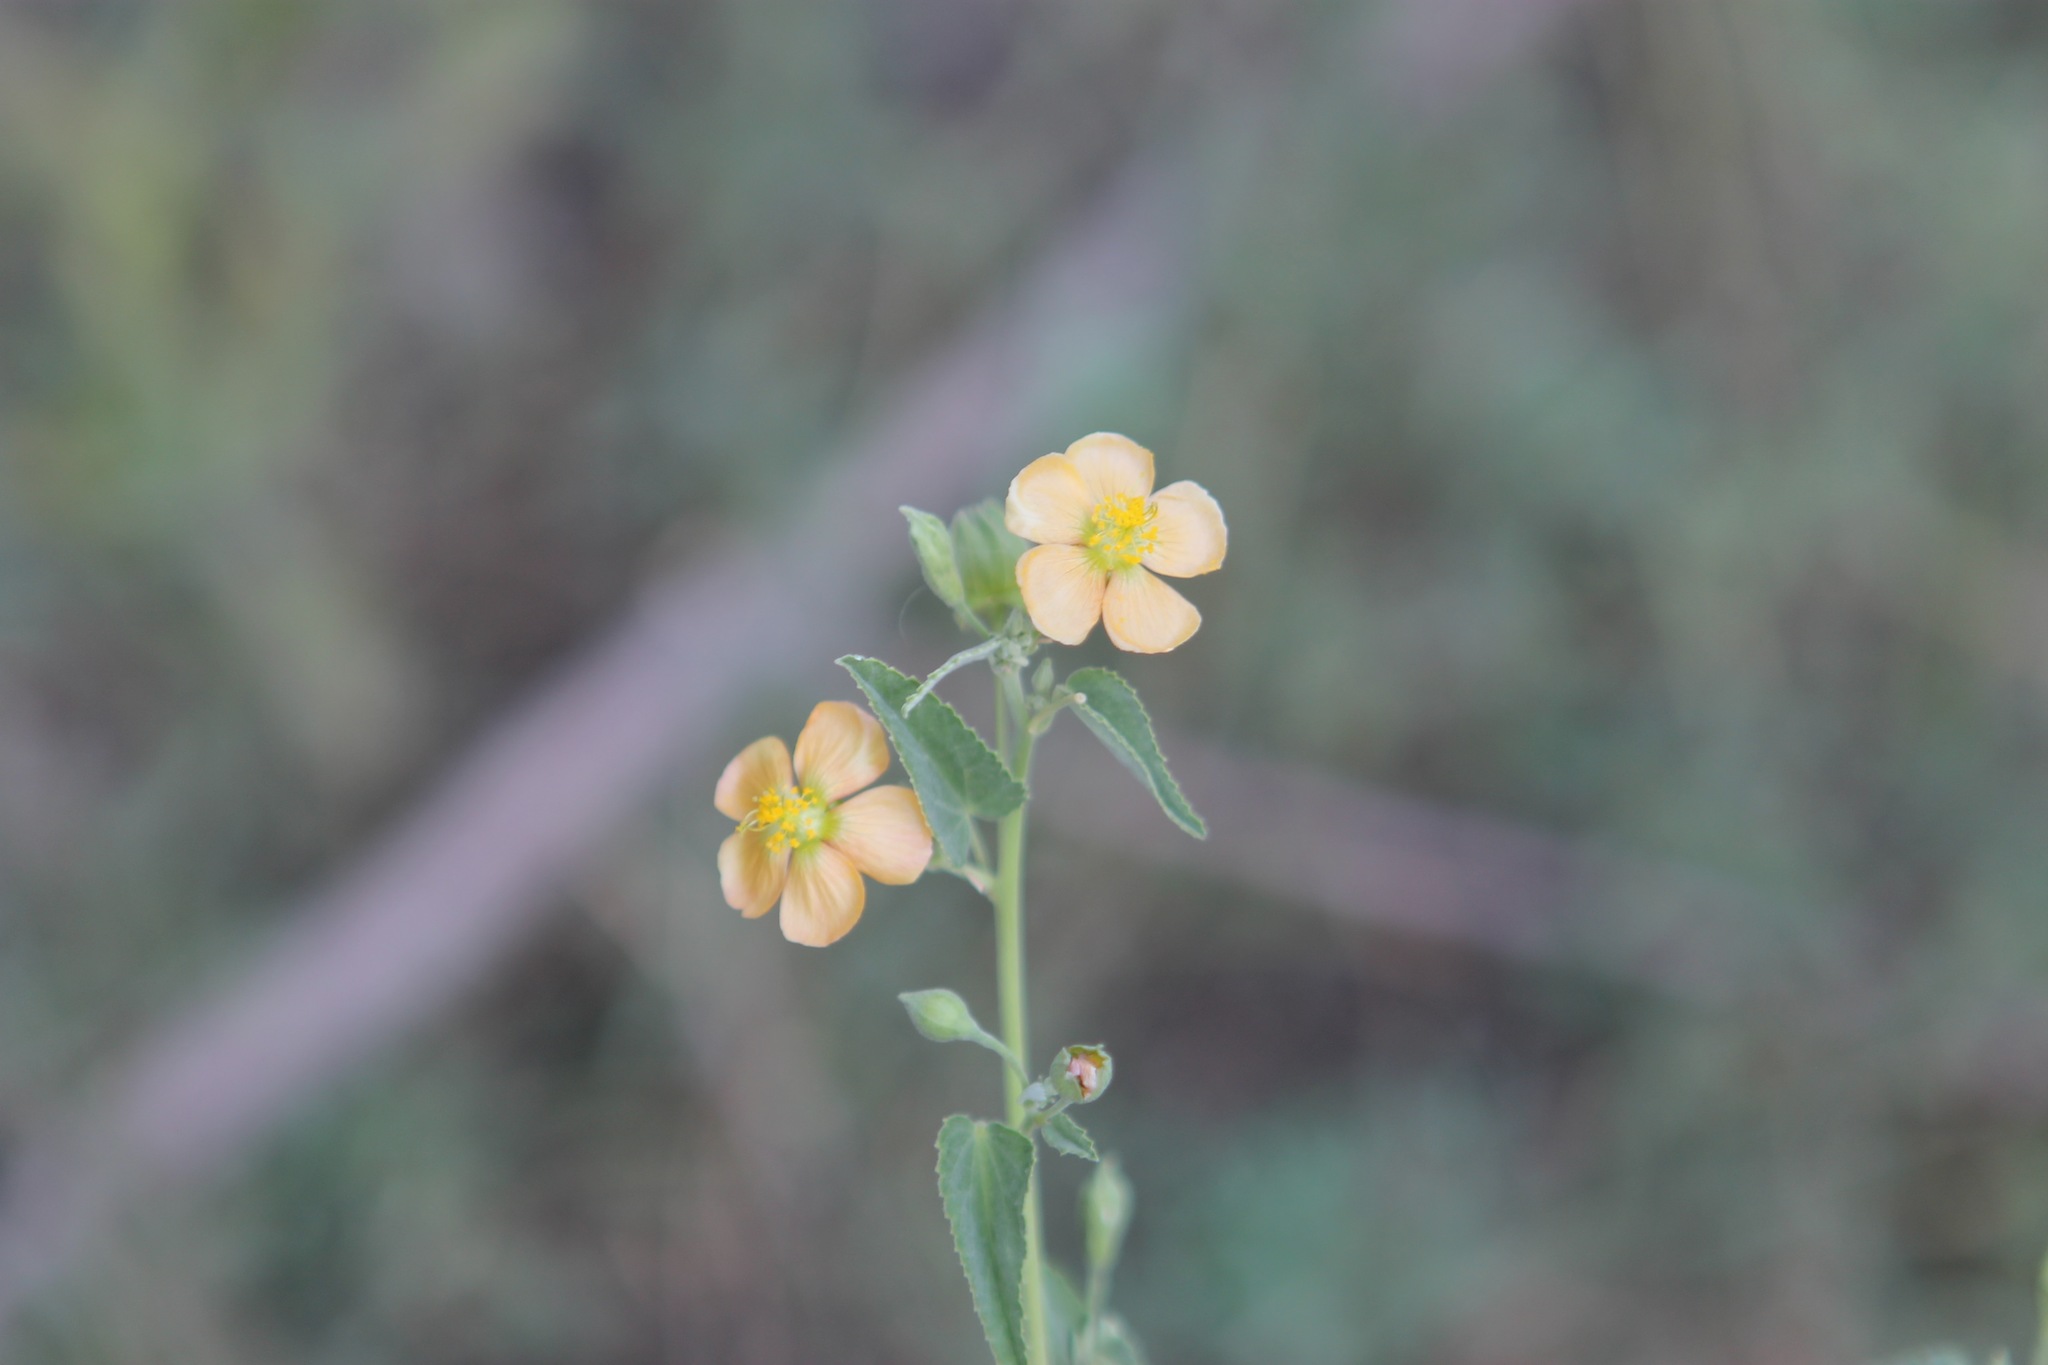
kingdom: Plantae
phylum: Tracheophyta
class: Magnoliopsida
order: Malvales
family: Malvaceae
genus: Abutilon
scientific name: Abutilon fruticosum
